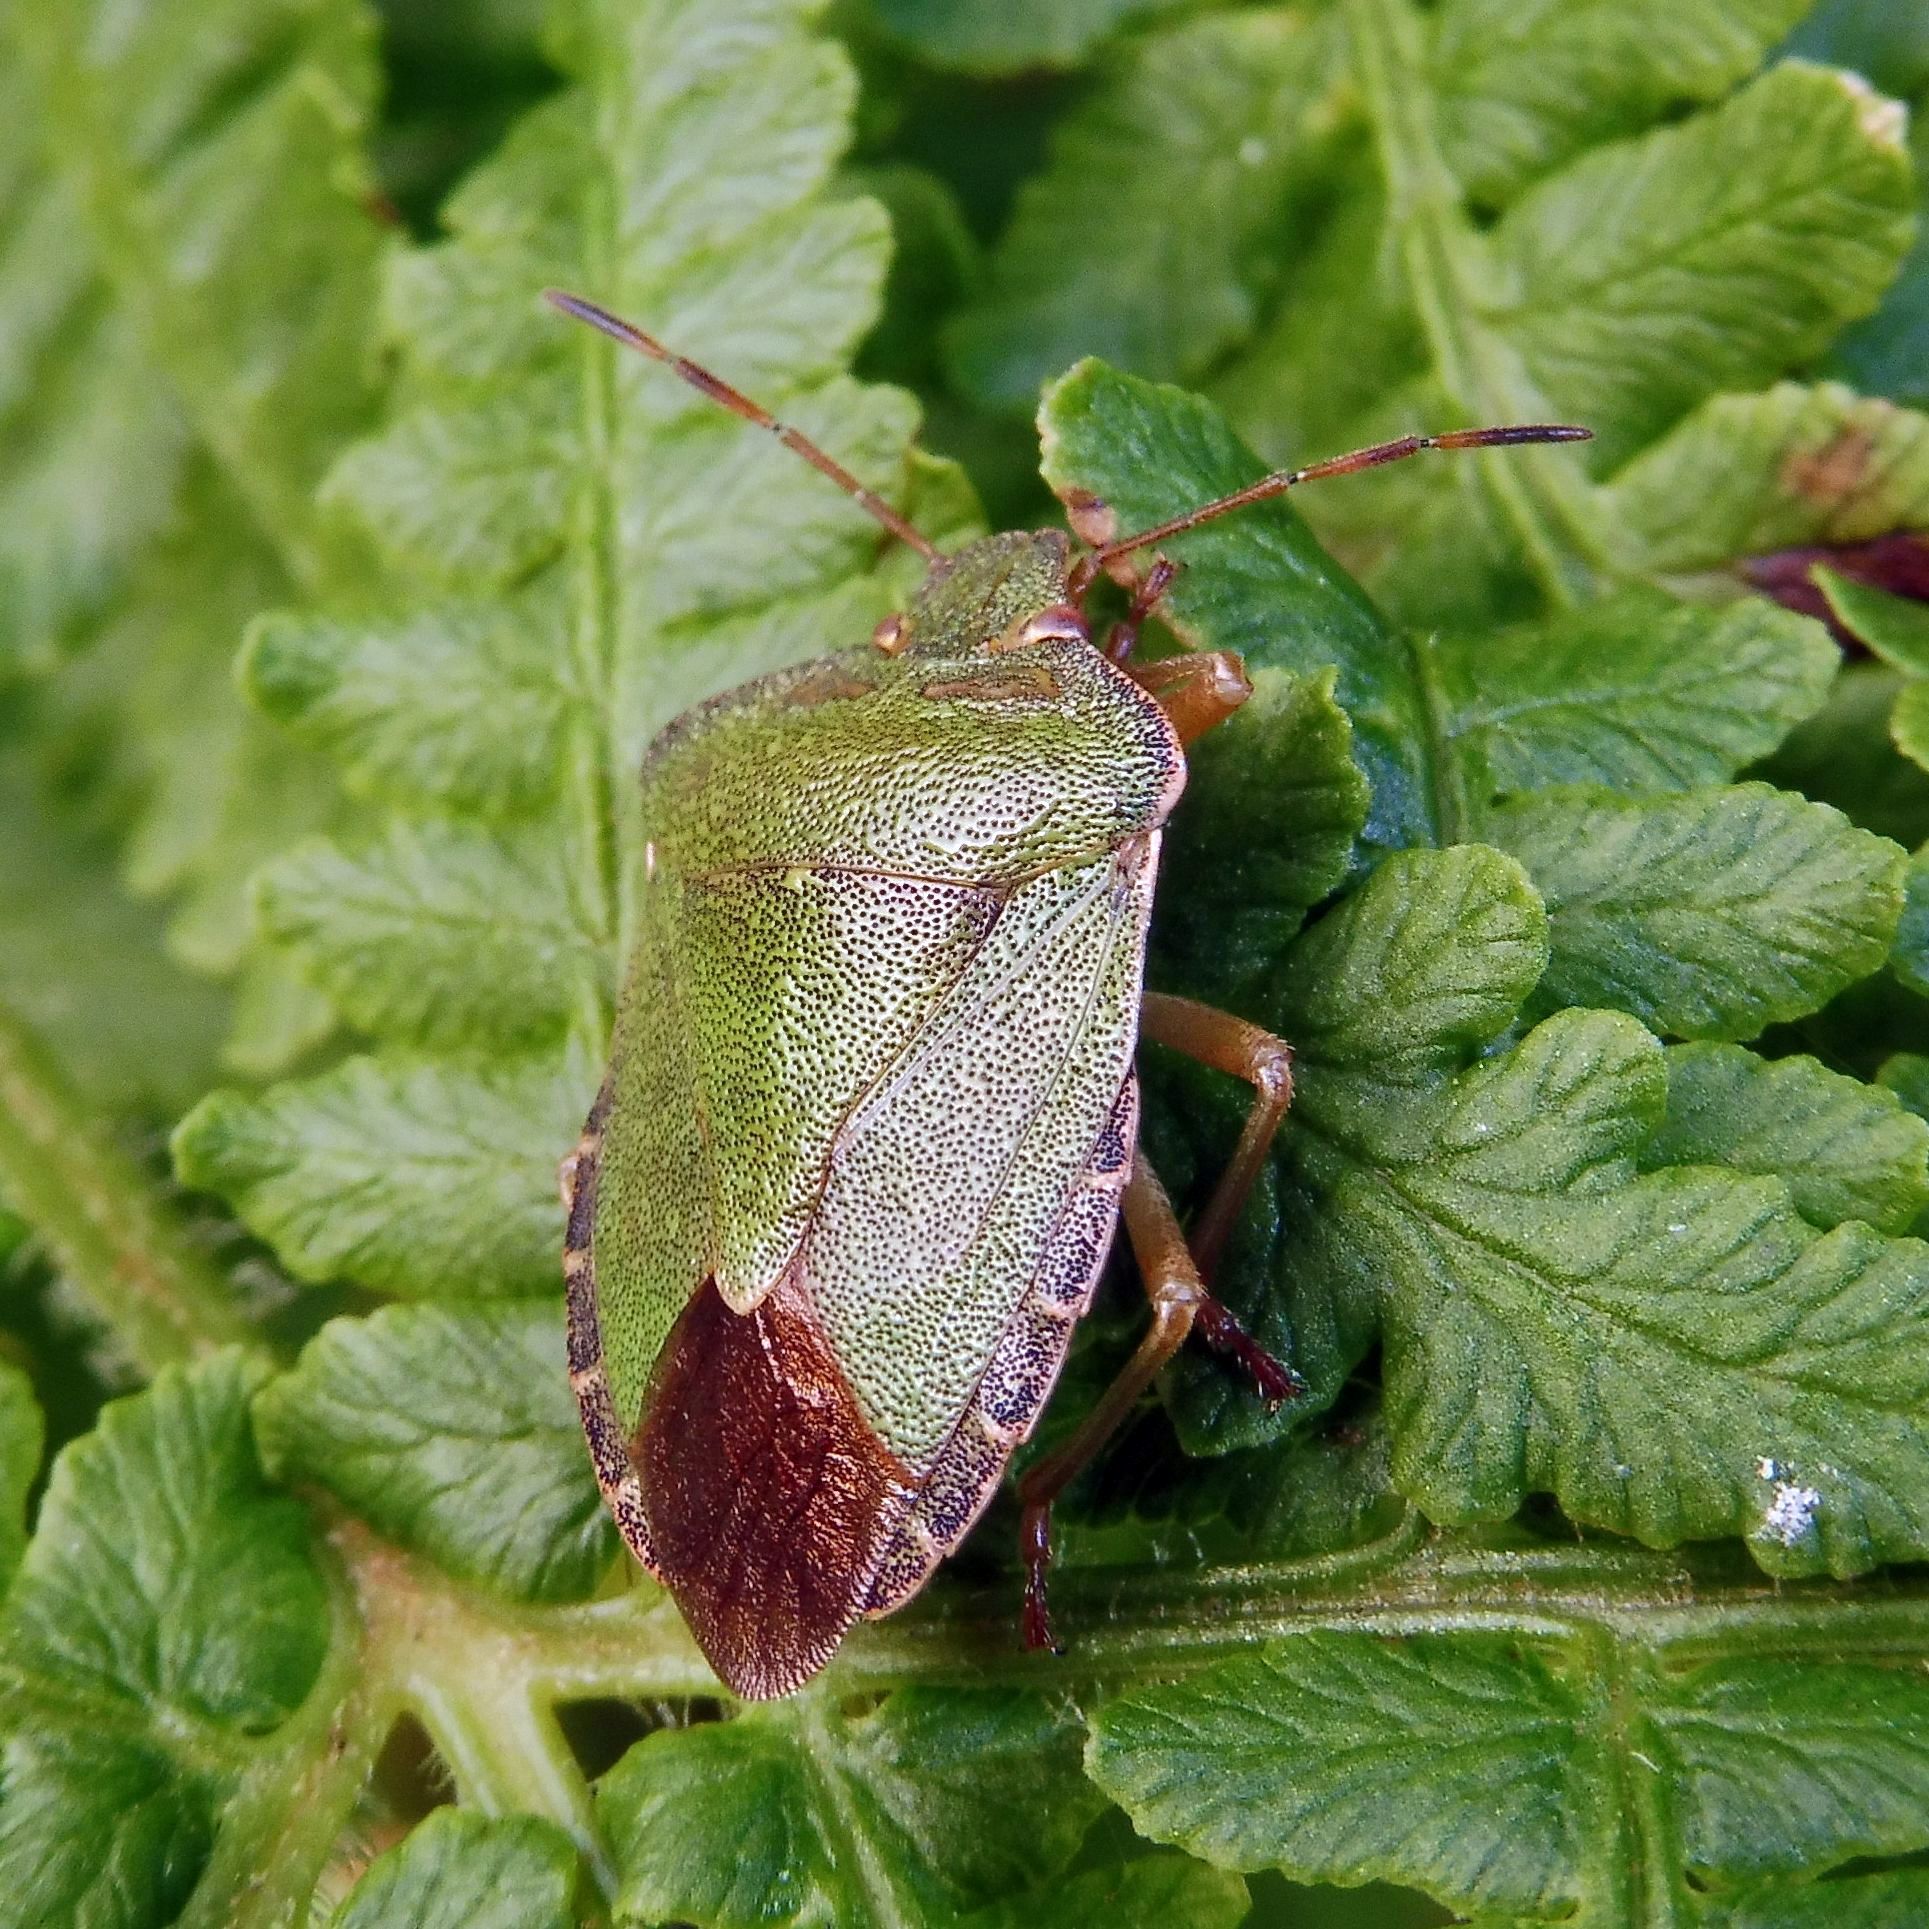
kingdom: Animalia
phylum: Arthropoda
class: Insecta
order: Hemiptera
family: Pentatomidae
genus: Palomena
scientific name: Palomena prasina
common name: Green shieldbug
